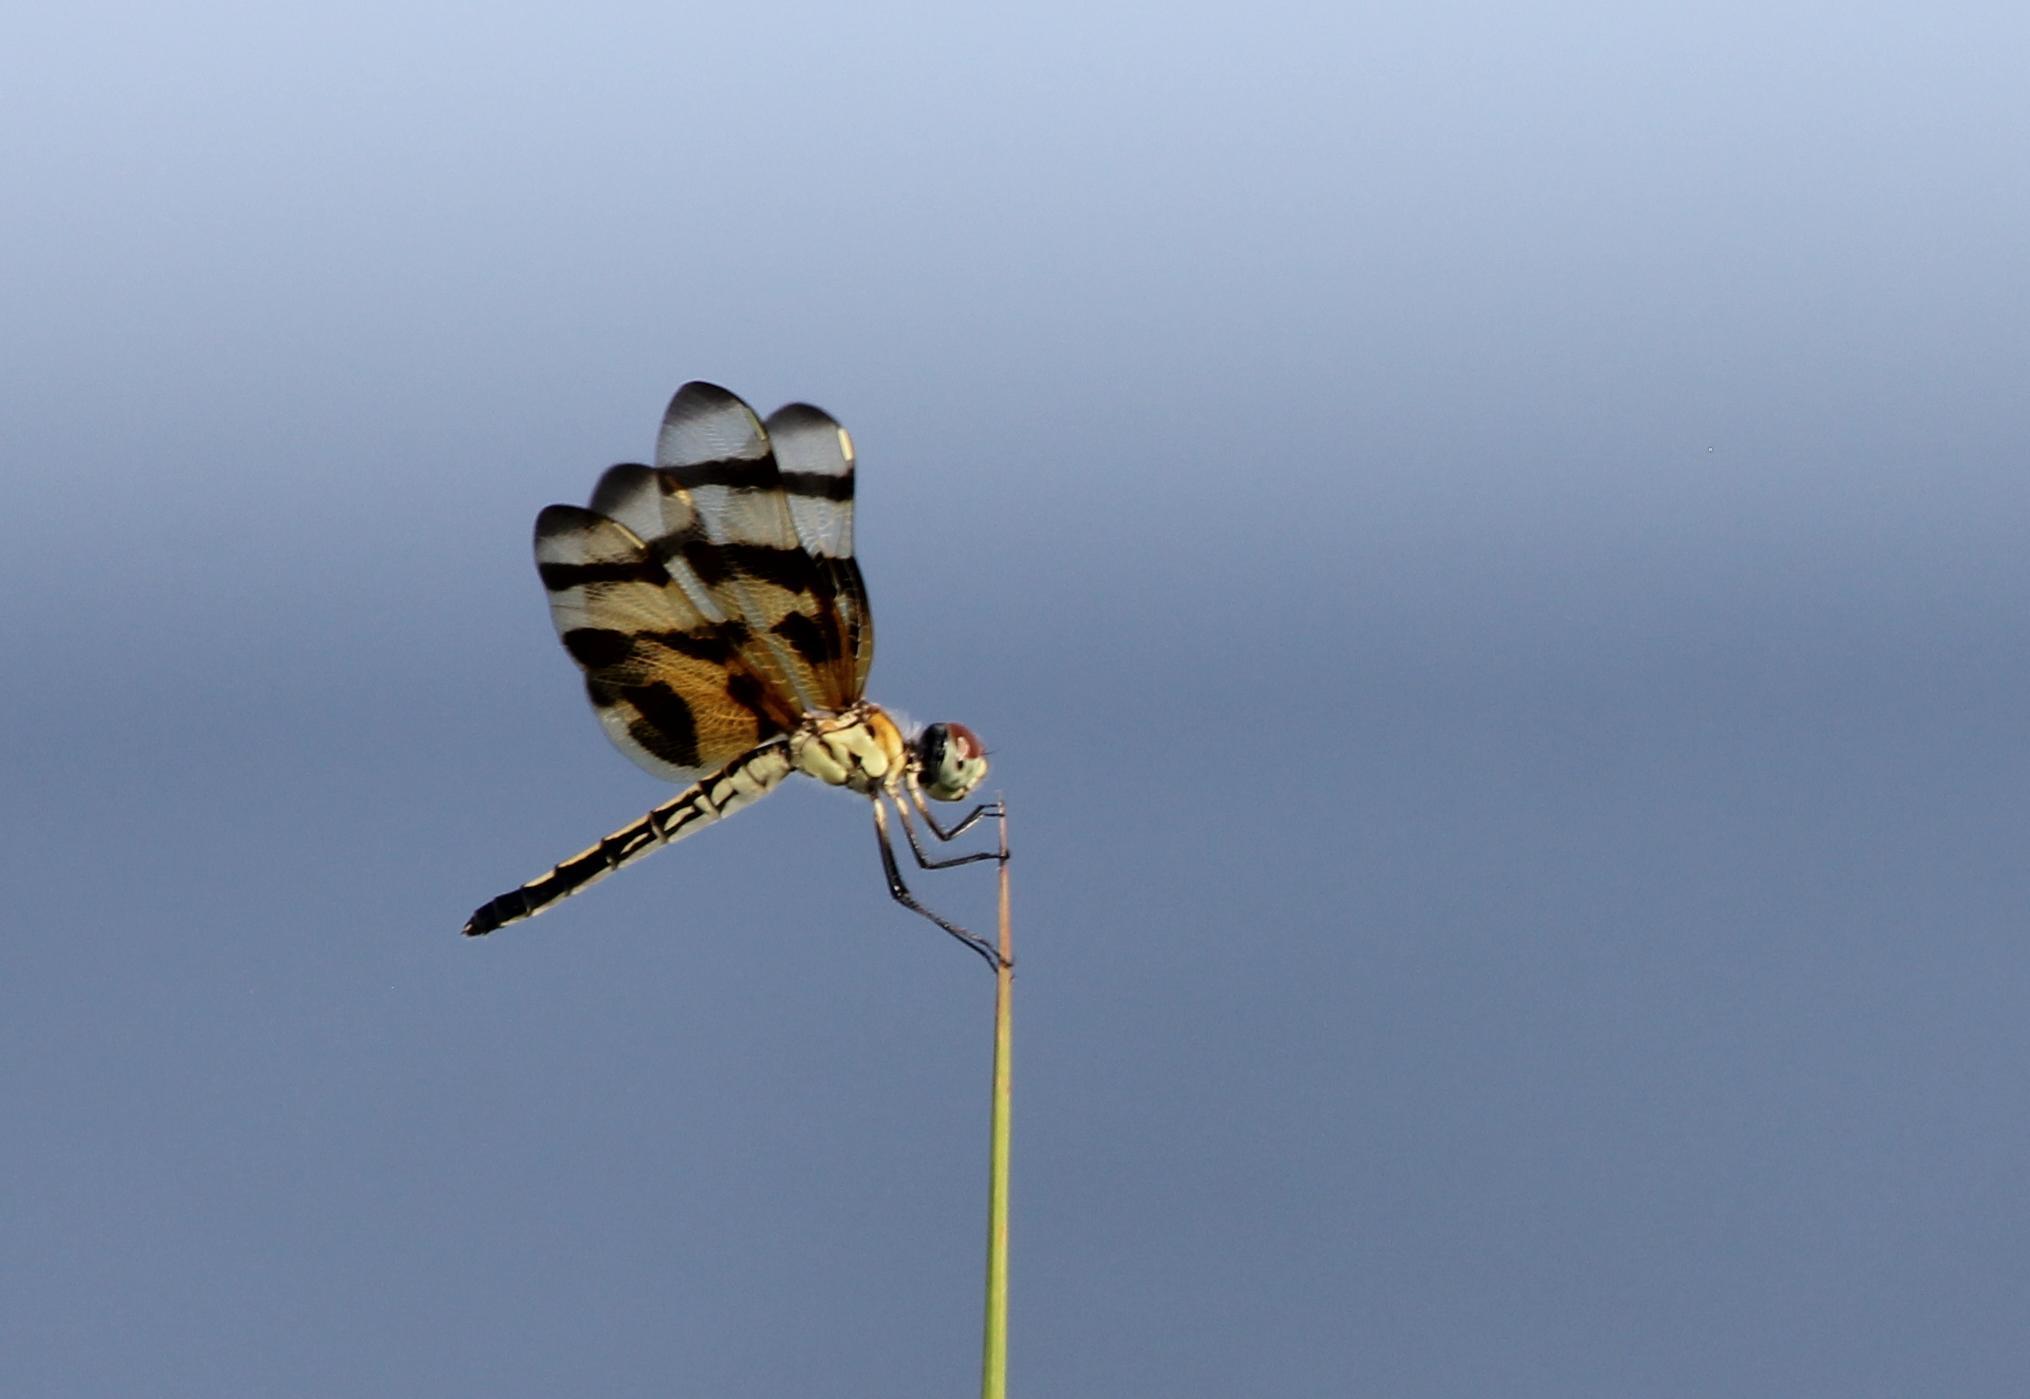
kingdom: Animalia
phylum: Arthropoda
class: Insecta
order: Odonata
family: Libellulidae
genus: Celithemis
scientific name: Celithemis eponina
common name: Halloween pennant
